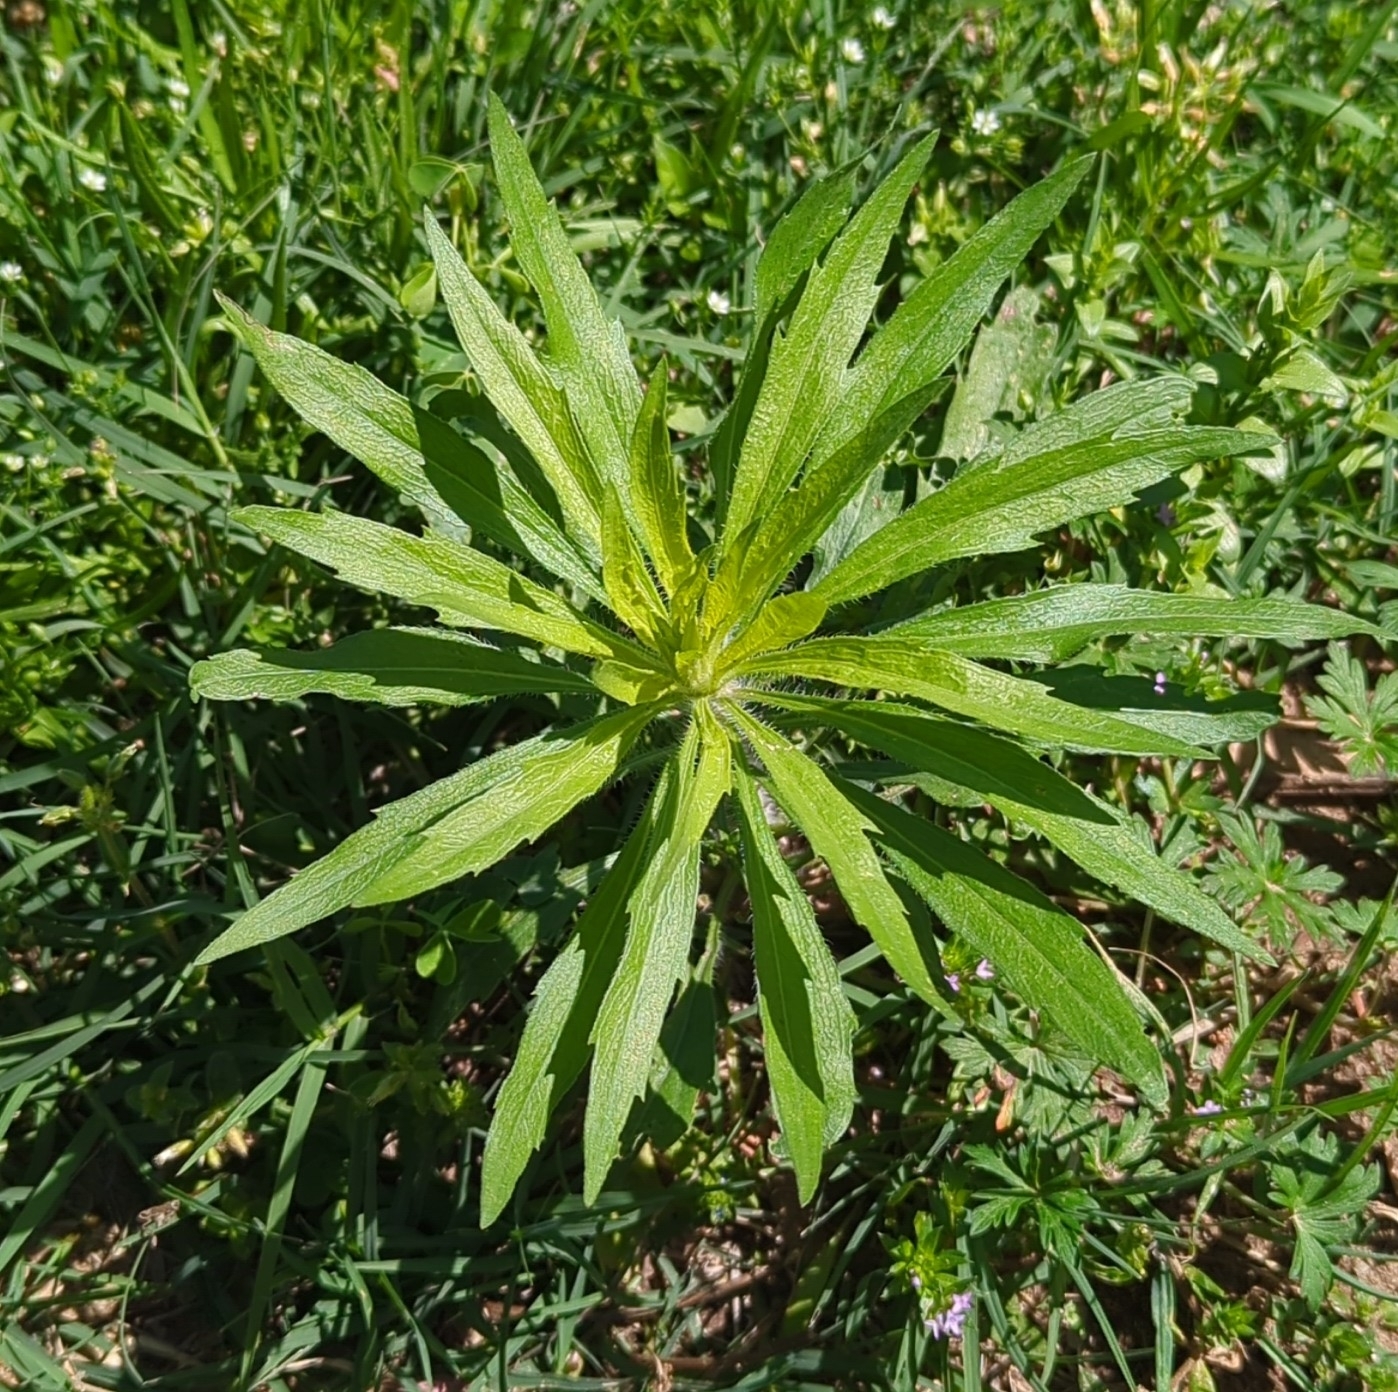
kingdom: Plantae
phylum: Tracheophyta
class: Magnoliopsida
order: Asterales
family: Asteraceae
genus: Erigeron
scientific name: Erigeron canadensis
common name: Canadian fleabane
